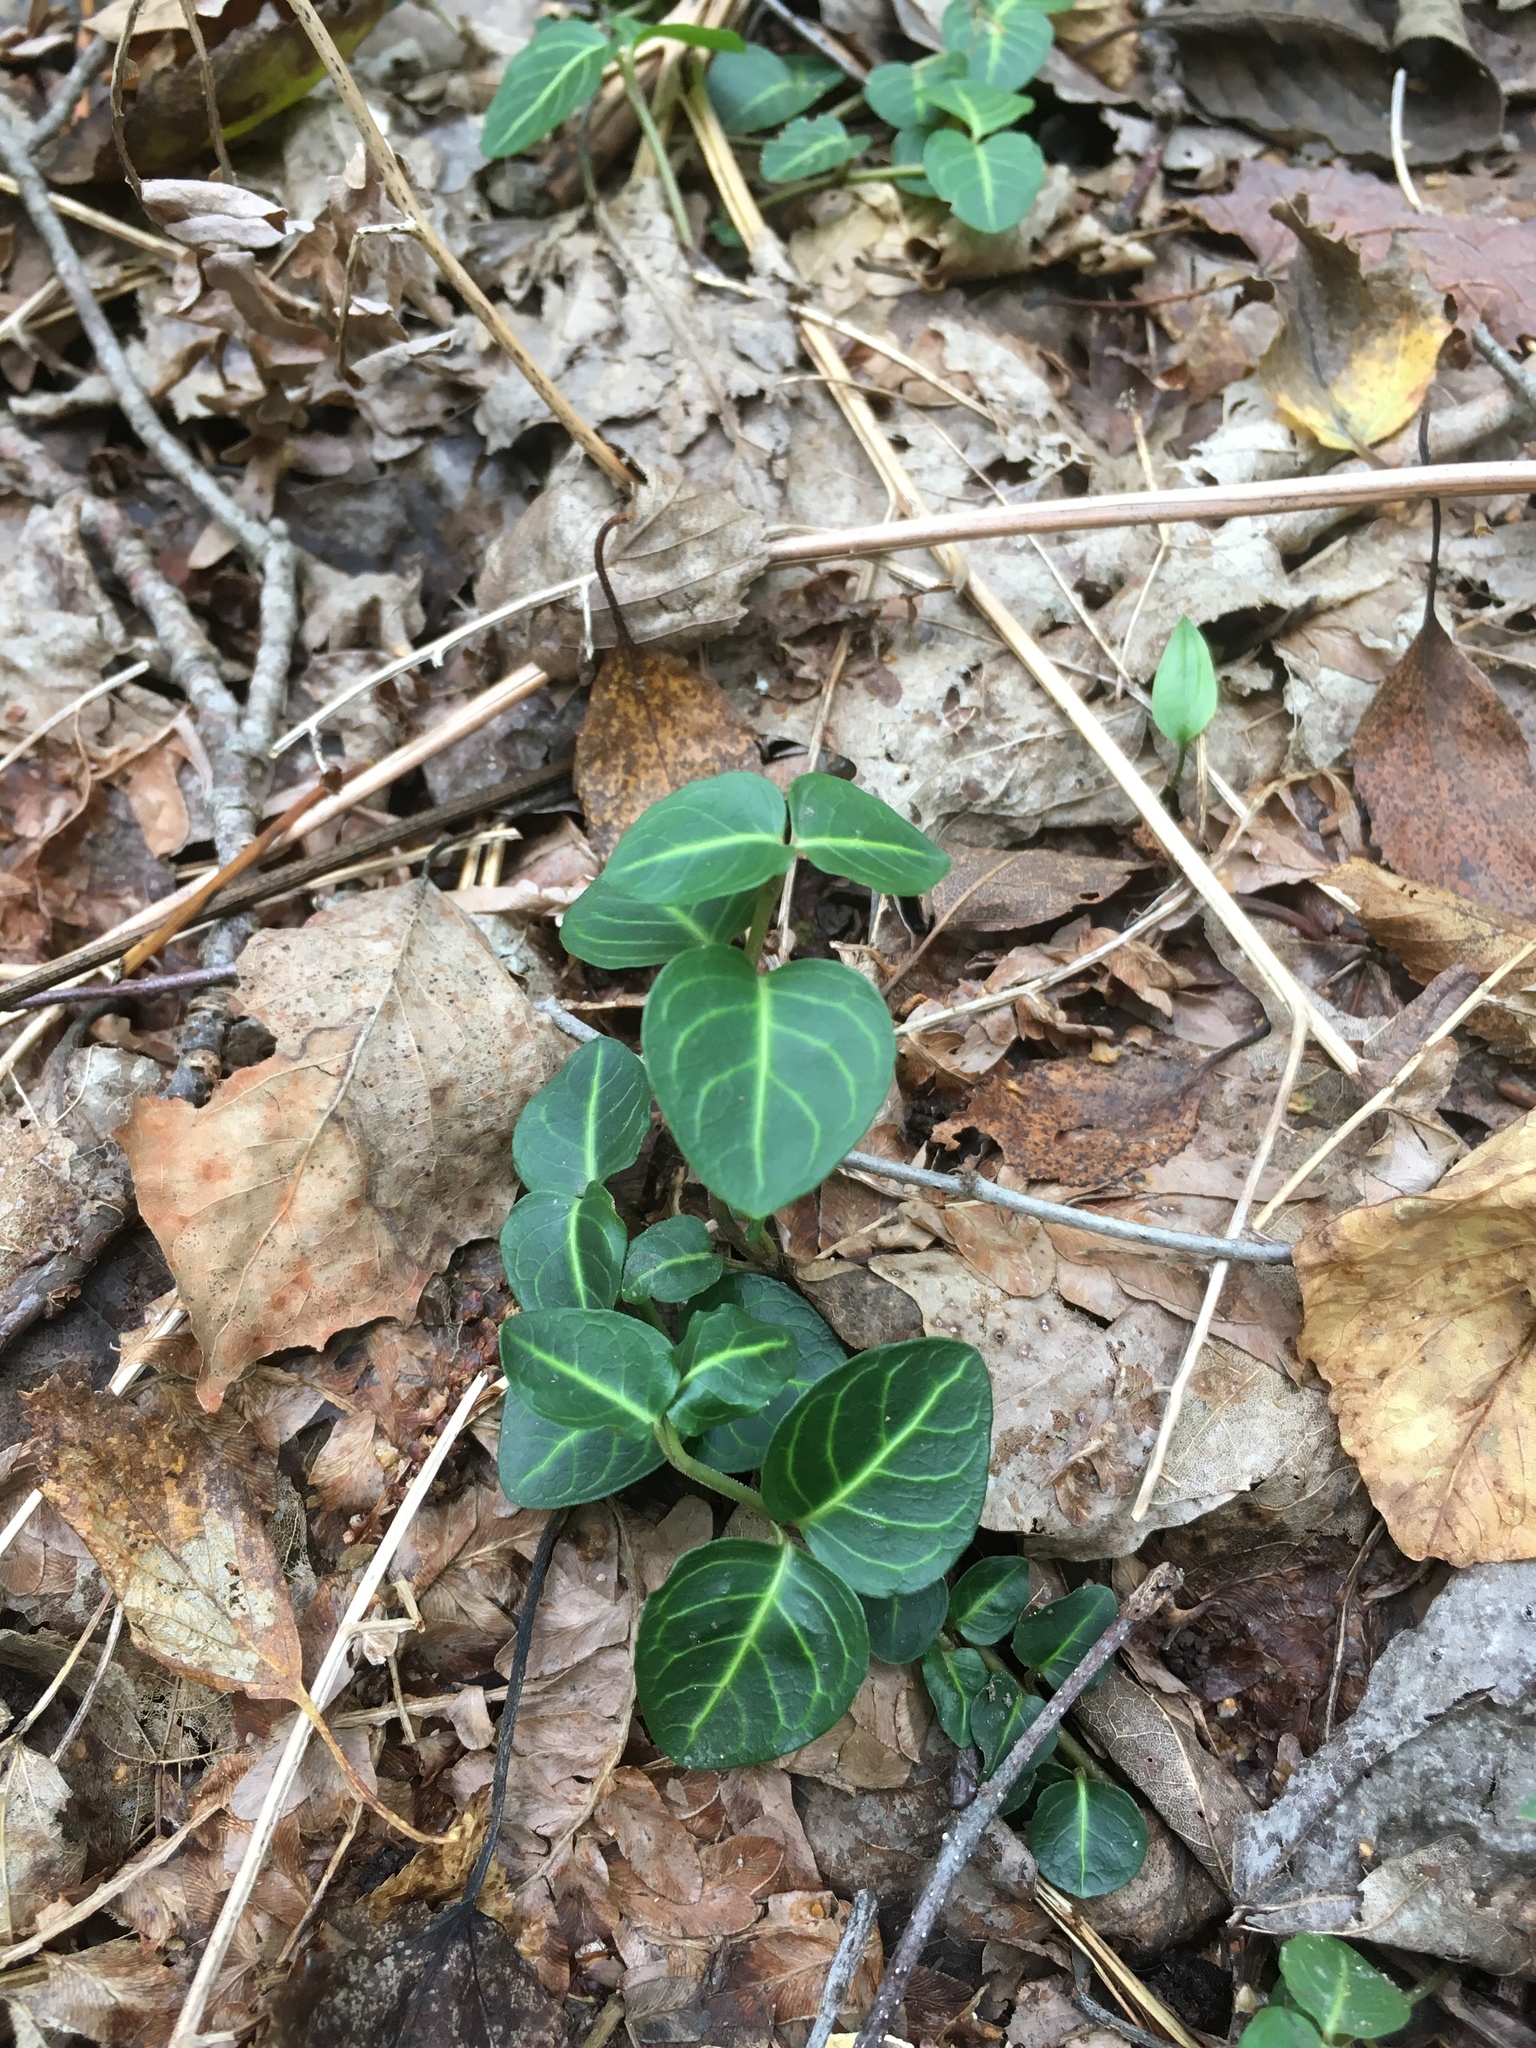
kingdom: Plantae
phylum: Tracheophyta
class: Magnoliopsida
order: Gentianales
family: Rubiaceae
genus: Mitchella
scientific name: Mitchella repens
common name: Partridge-berry
